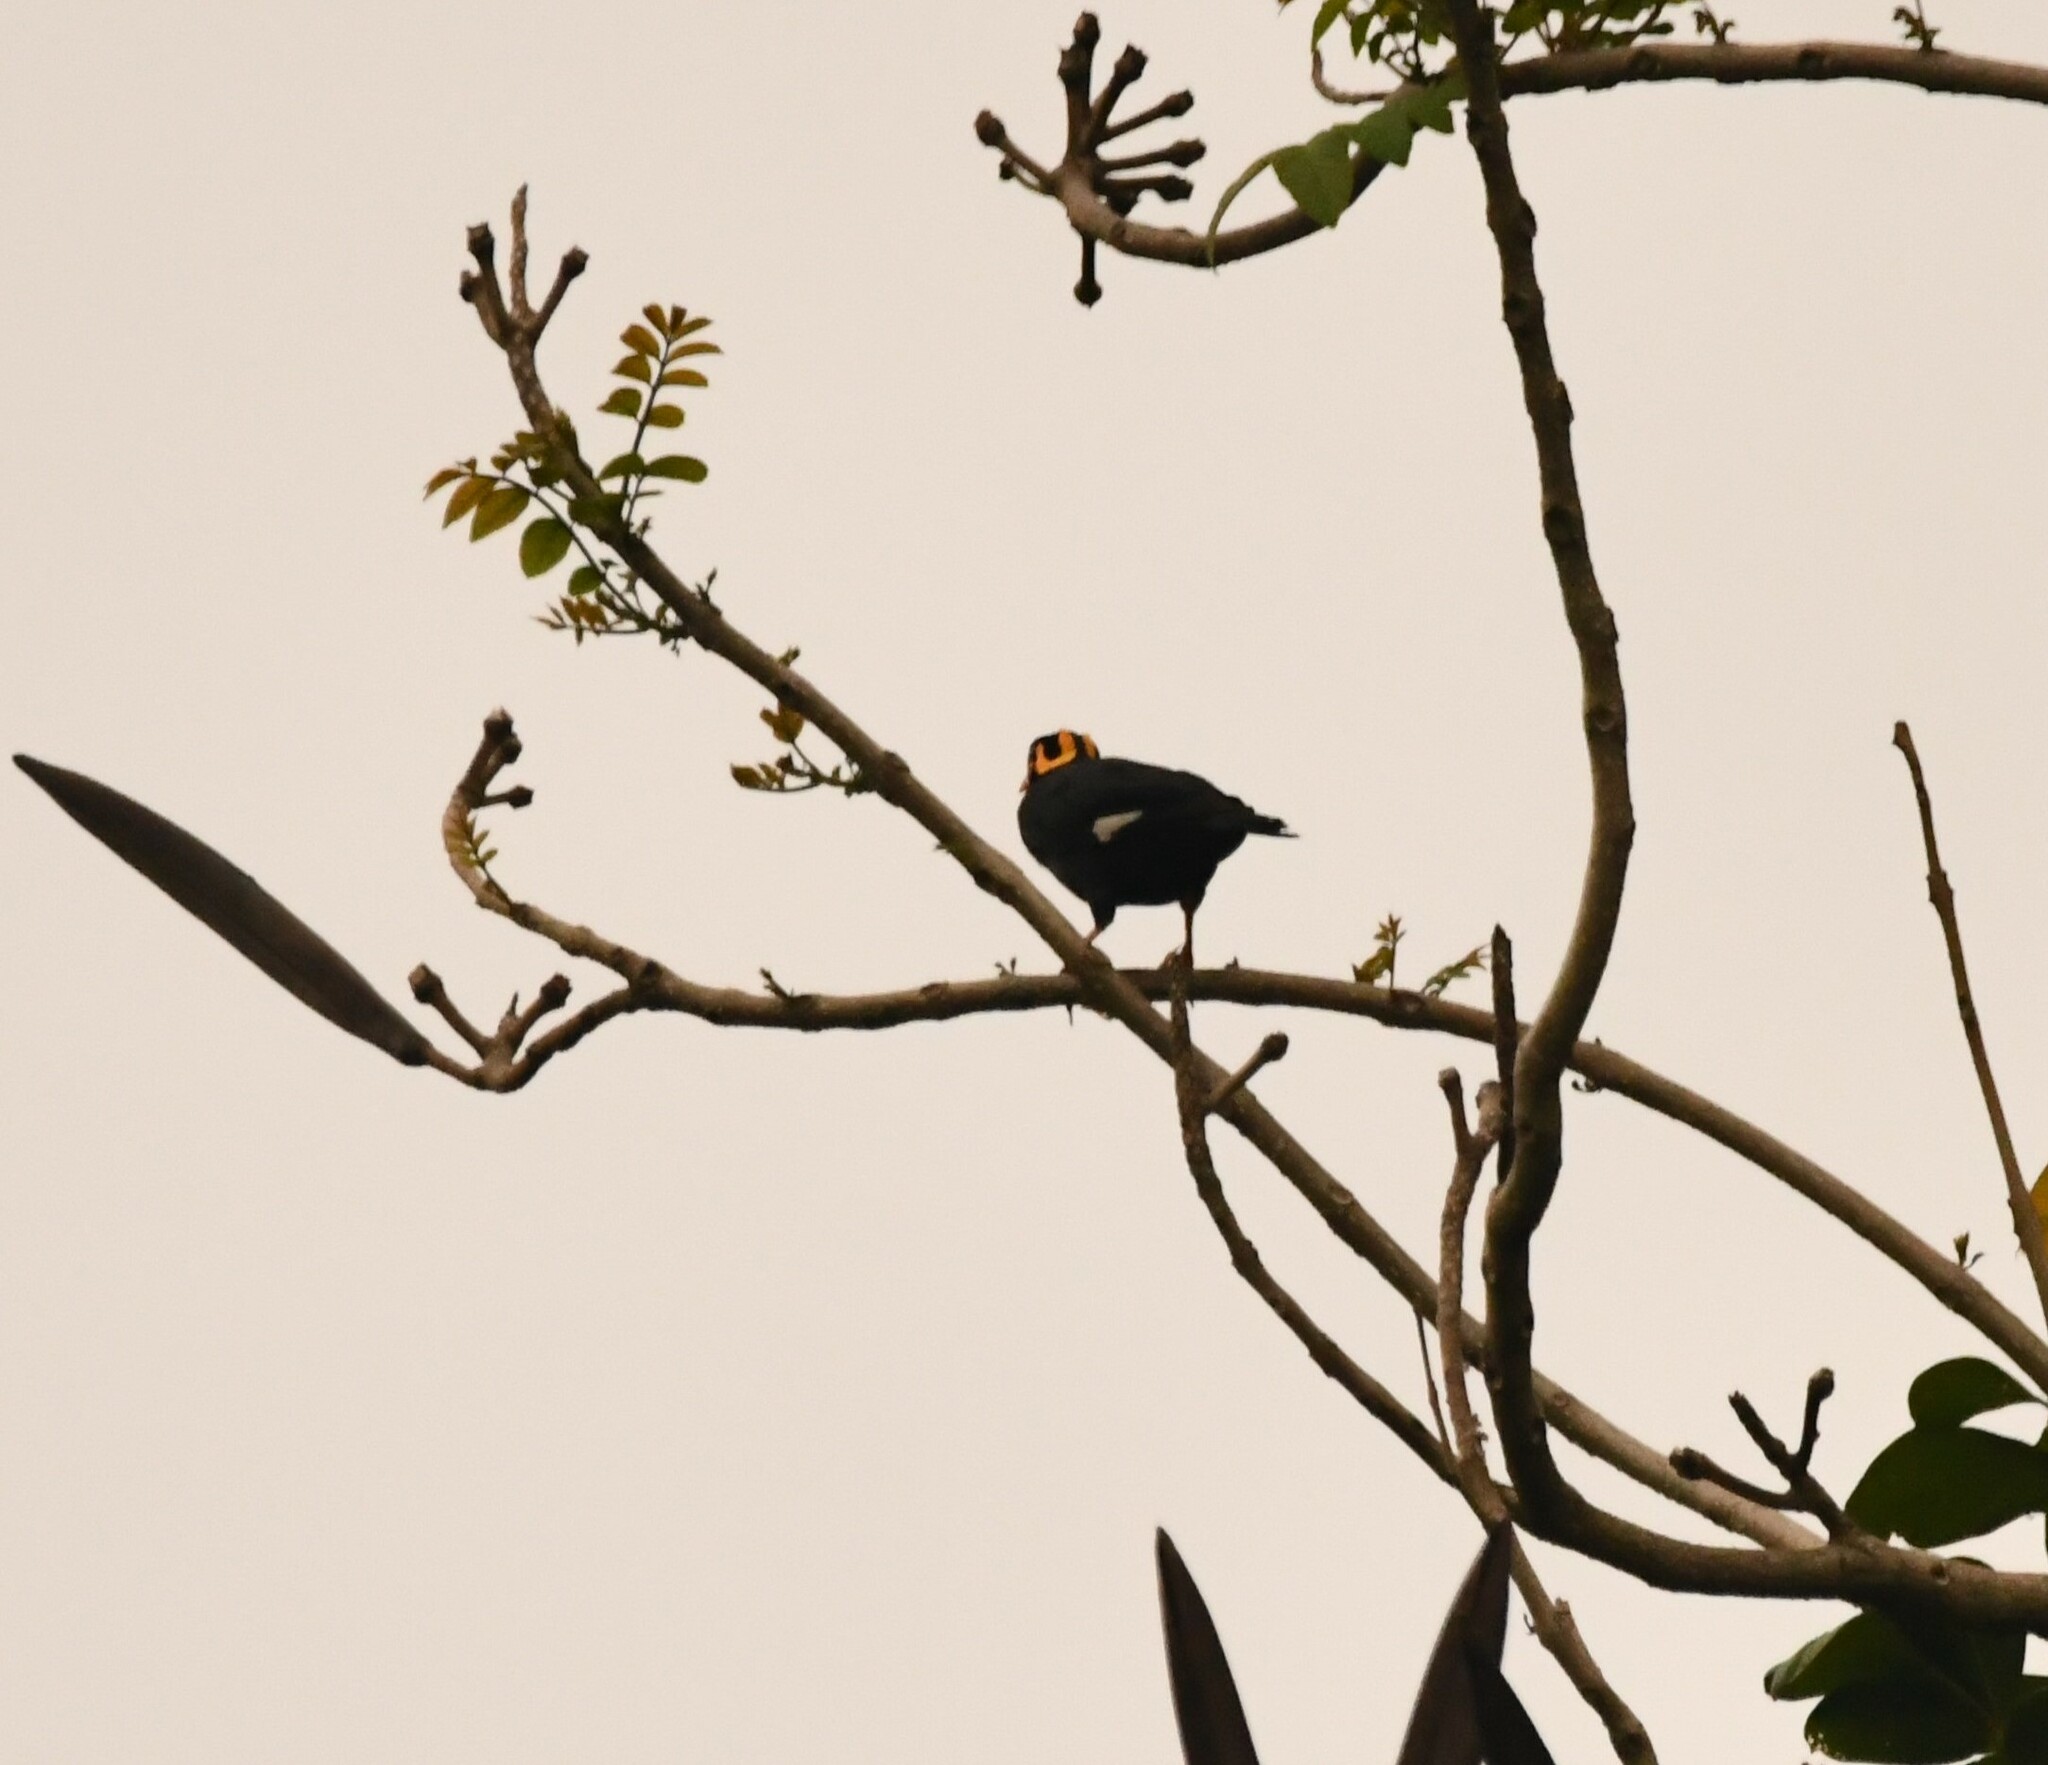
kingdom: Animalia
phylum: Chordata
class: Aves
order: Passeriformes
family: Sturnidae
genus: Gracula
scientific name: Gracula indica
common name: Southern hill myna
